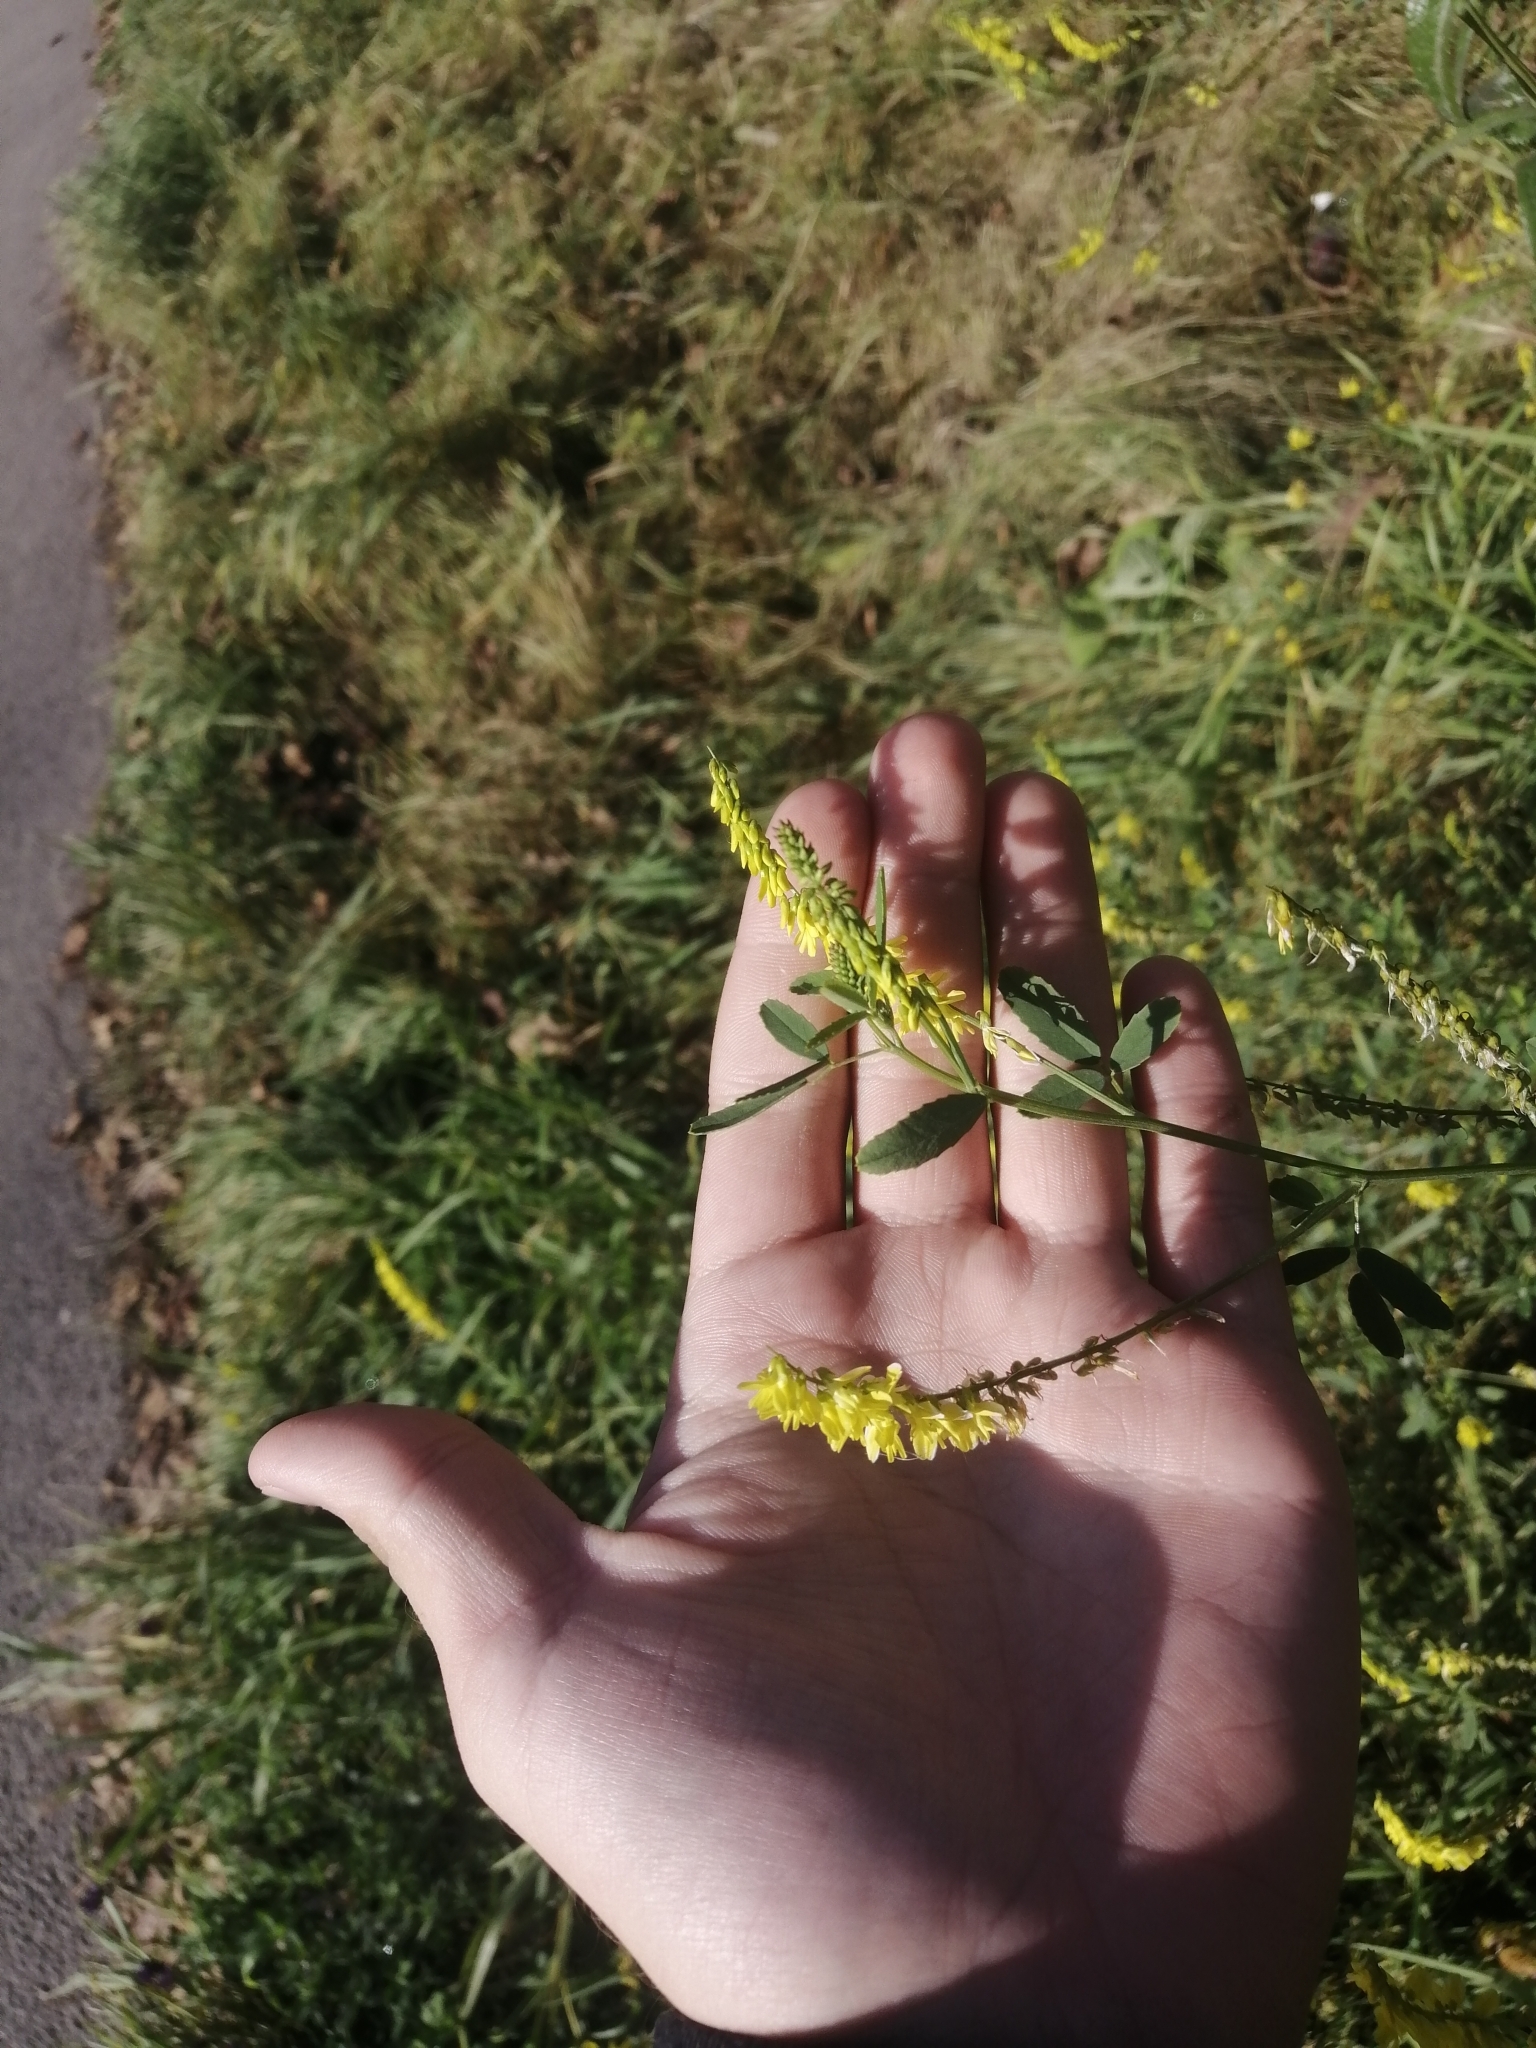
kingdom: Plantae
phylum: Tracheophyta
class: Magnoliopsida
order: Fabales
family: Fabaceae
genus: Melilotus
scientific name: Melilotus officinalis
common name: Sweetclover
